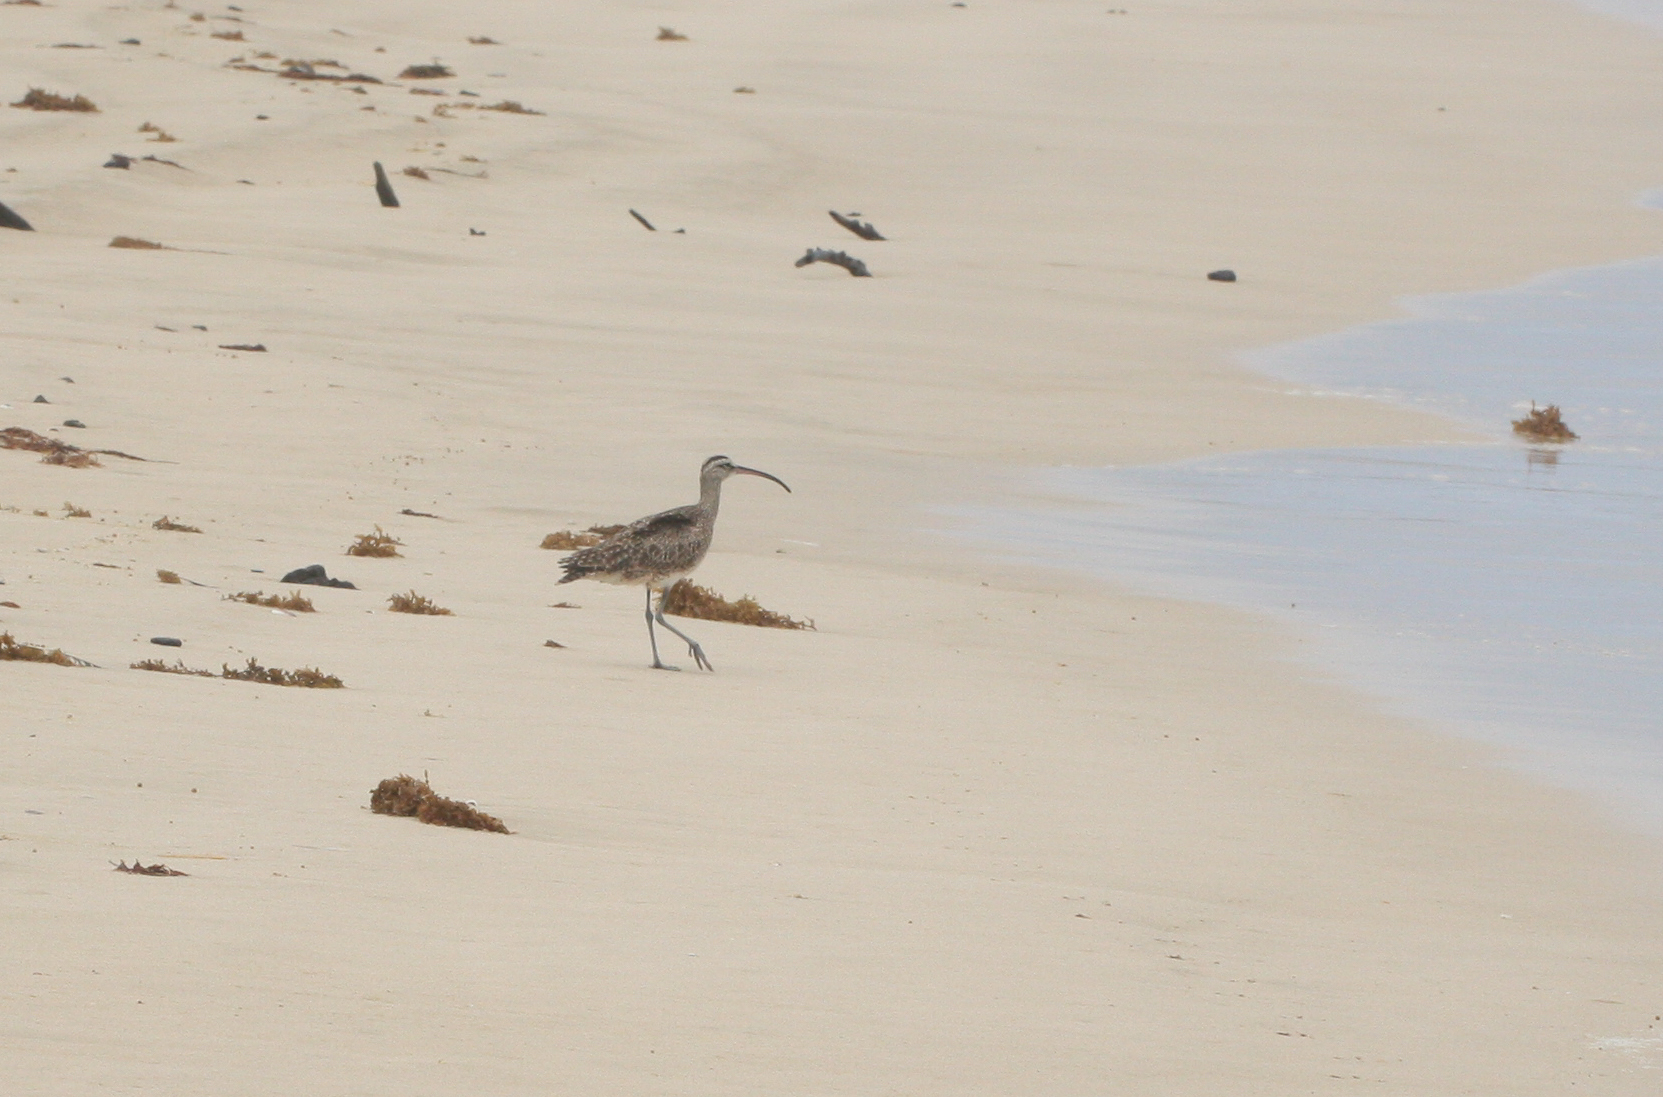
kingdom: Animalia
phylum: Chordata
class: Aves
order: Charadriiformes
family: Scolopacidae
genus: Numenius
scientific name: Numenius phaeopus
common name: Whimbrel
